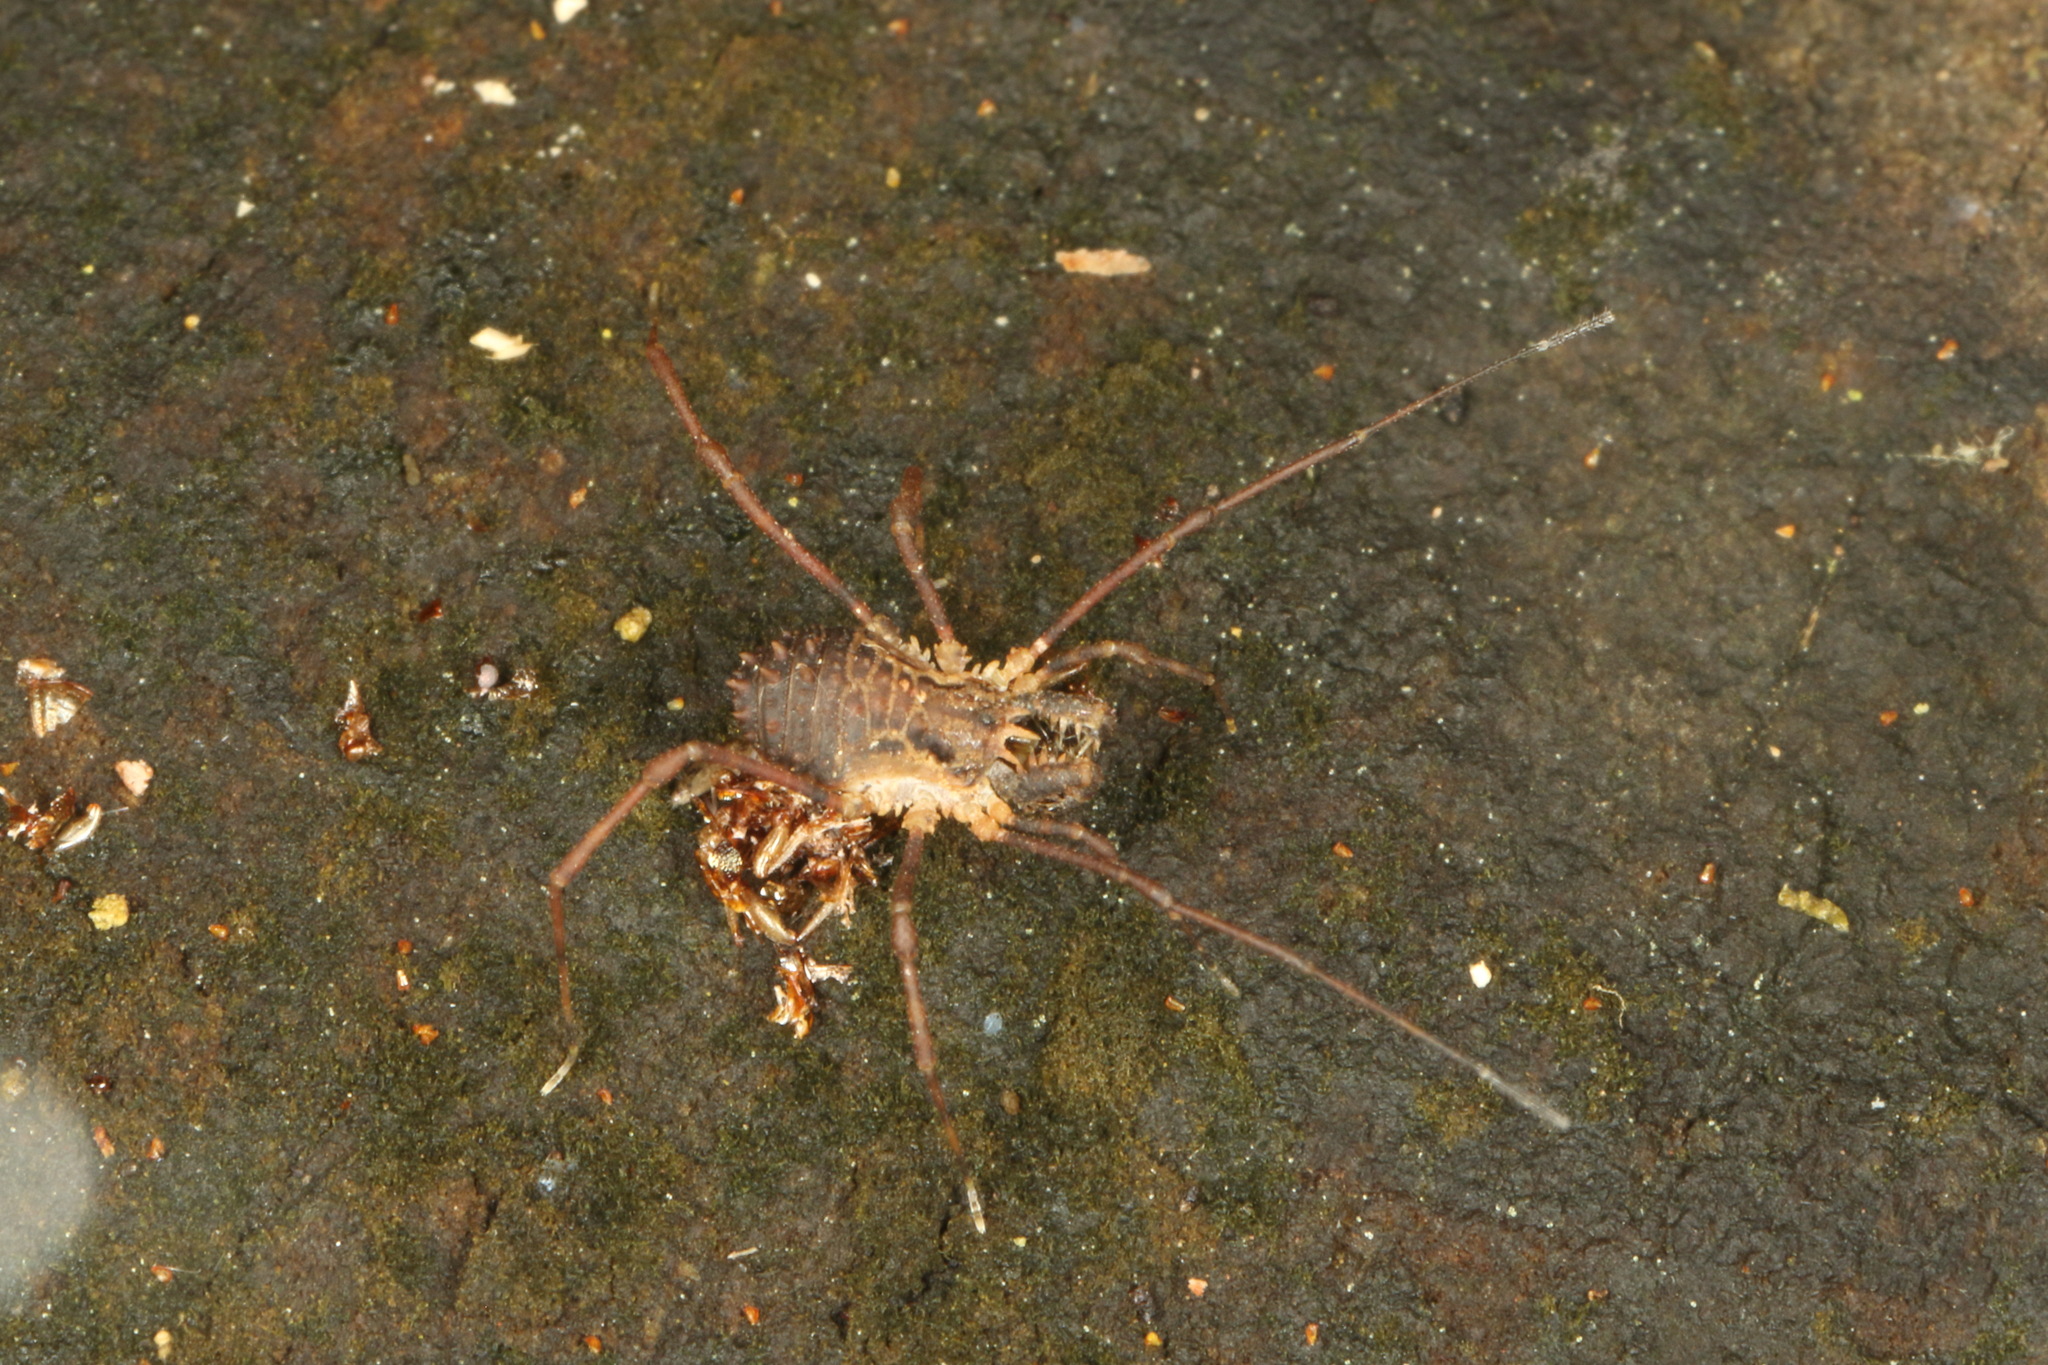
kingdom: Animalia
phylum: Arthropoda
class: Arachnida
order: Opiliones
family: Triaenonychidae
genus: Algidia
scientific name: Algidia chiltoni
